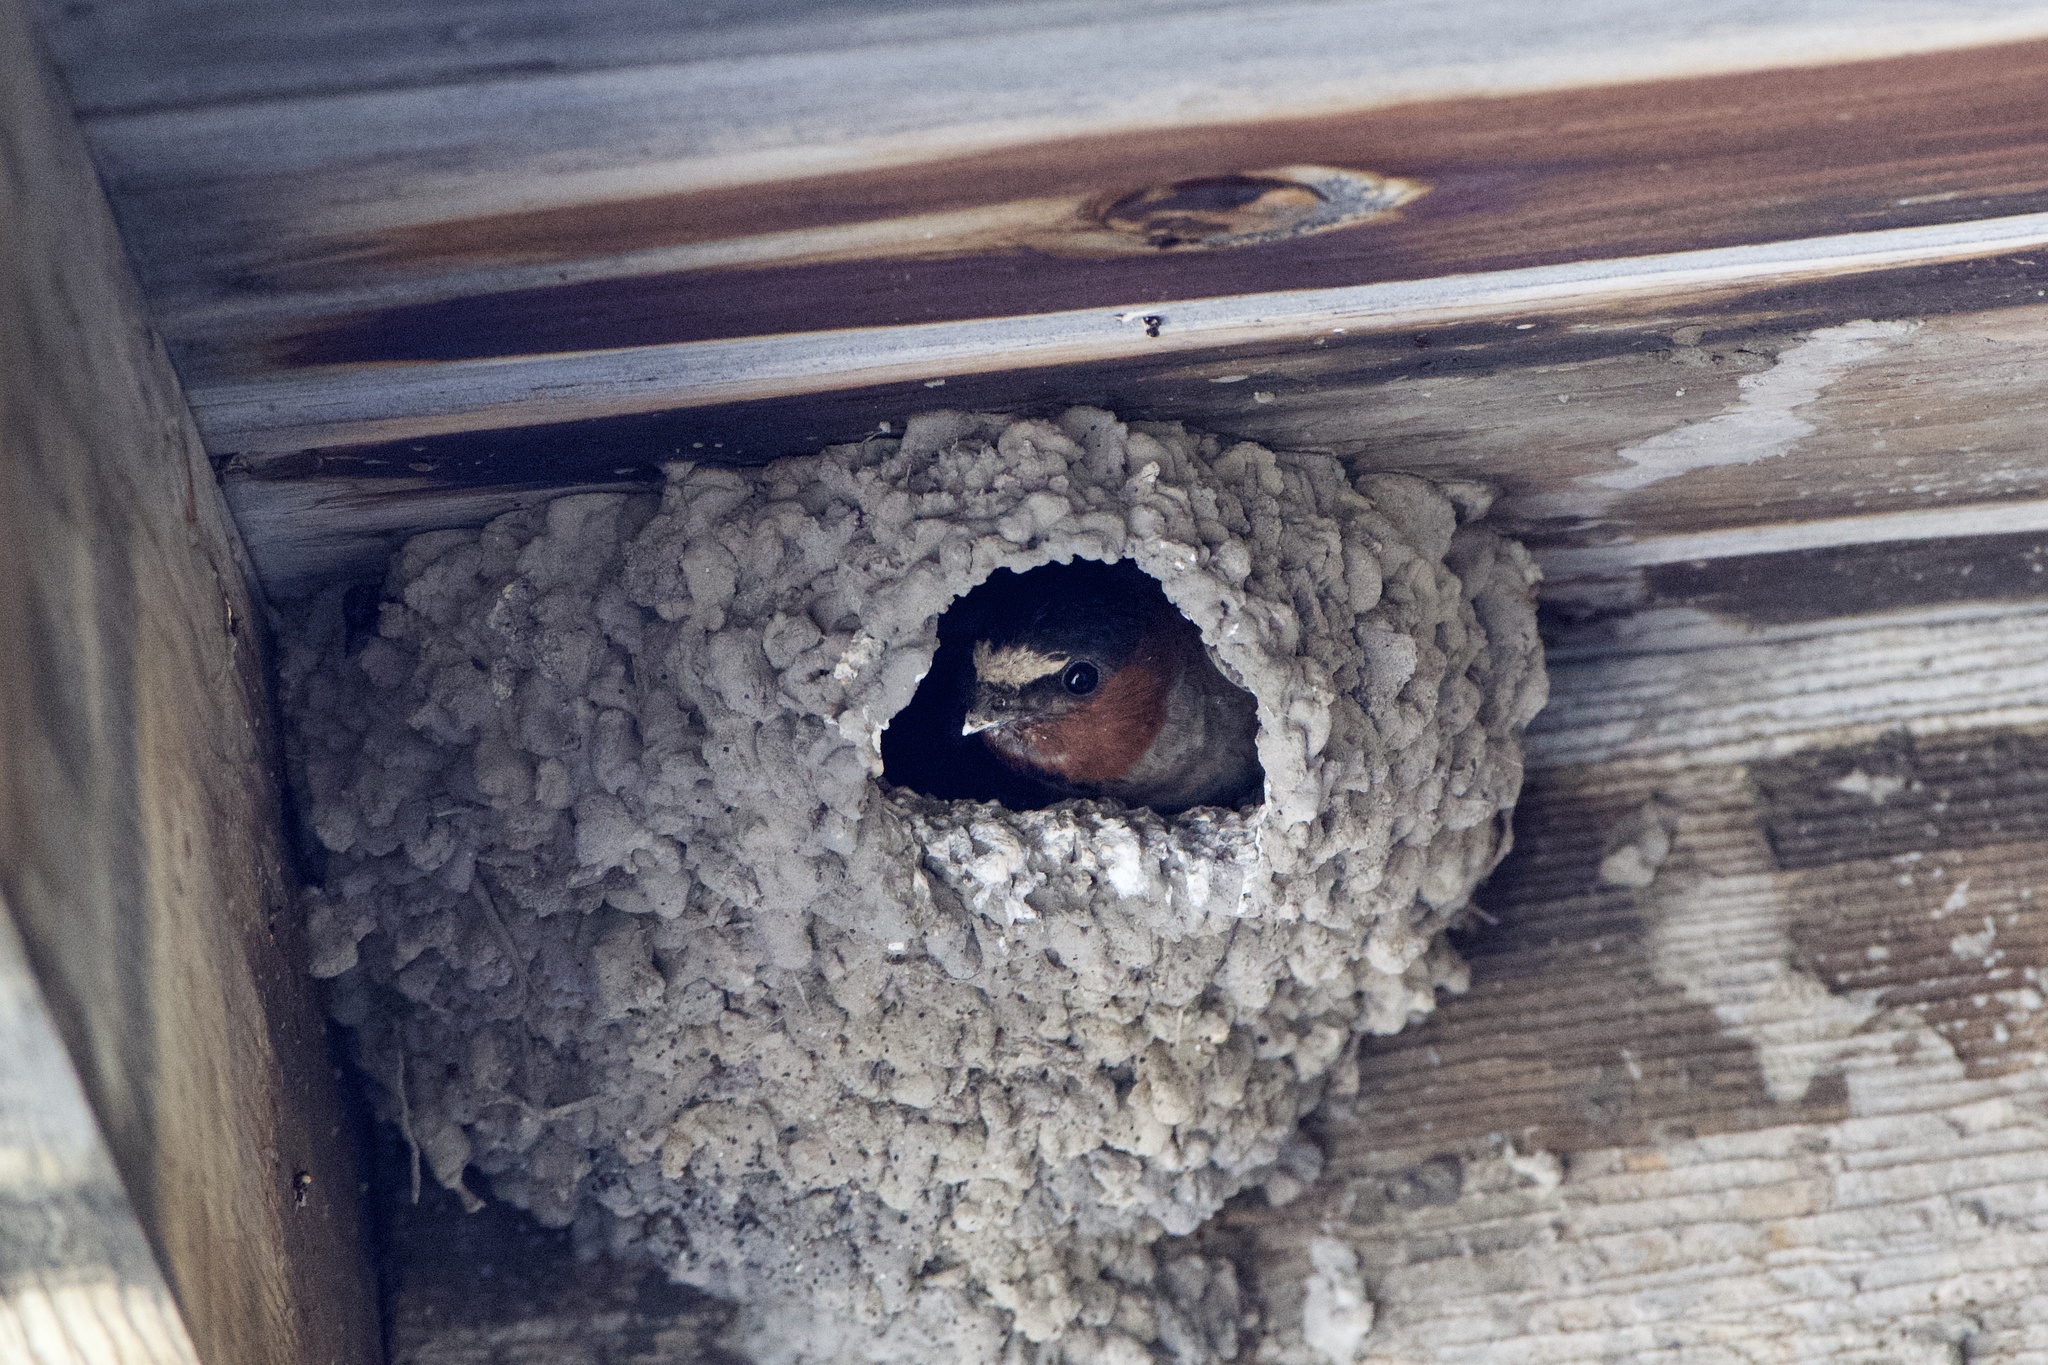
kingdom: Animalia
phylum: Chordata
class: Aves
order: Passeriformes
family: Hirundinidae
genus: Petrochelidon
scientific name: Petrochelidon pyrrhonota
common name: American cliff swallow
